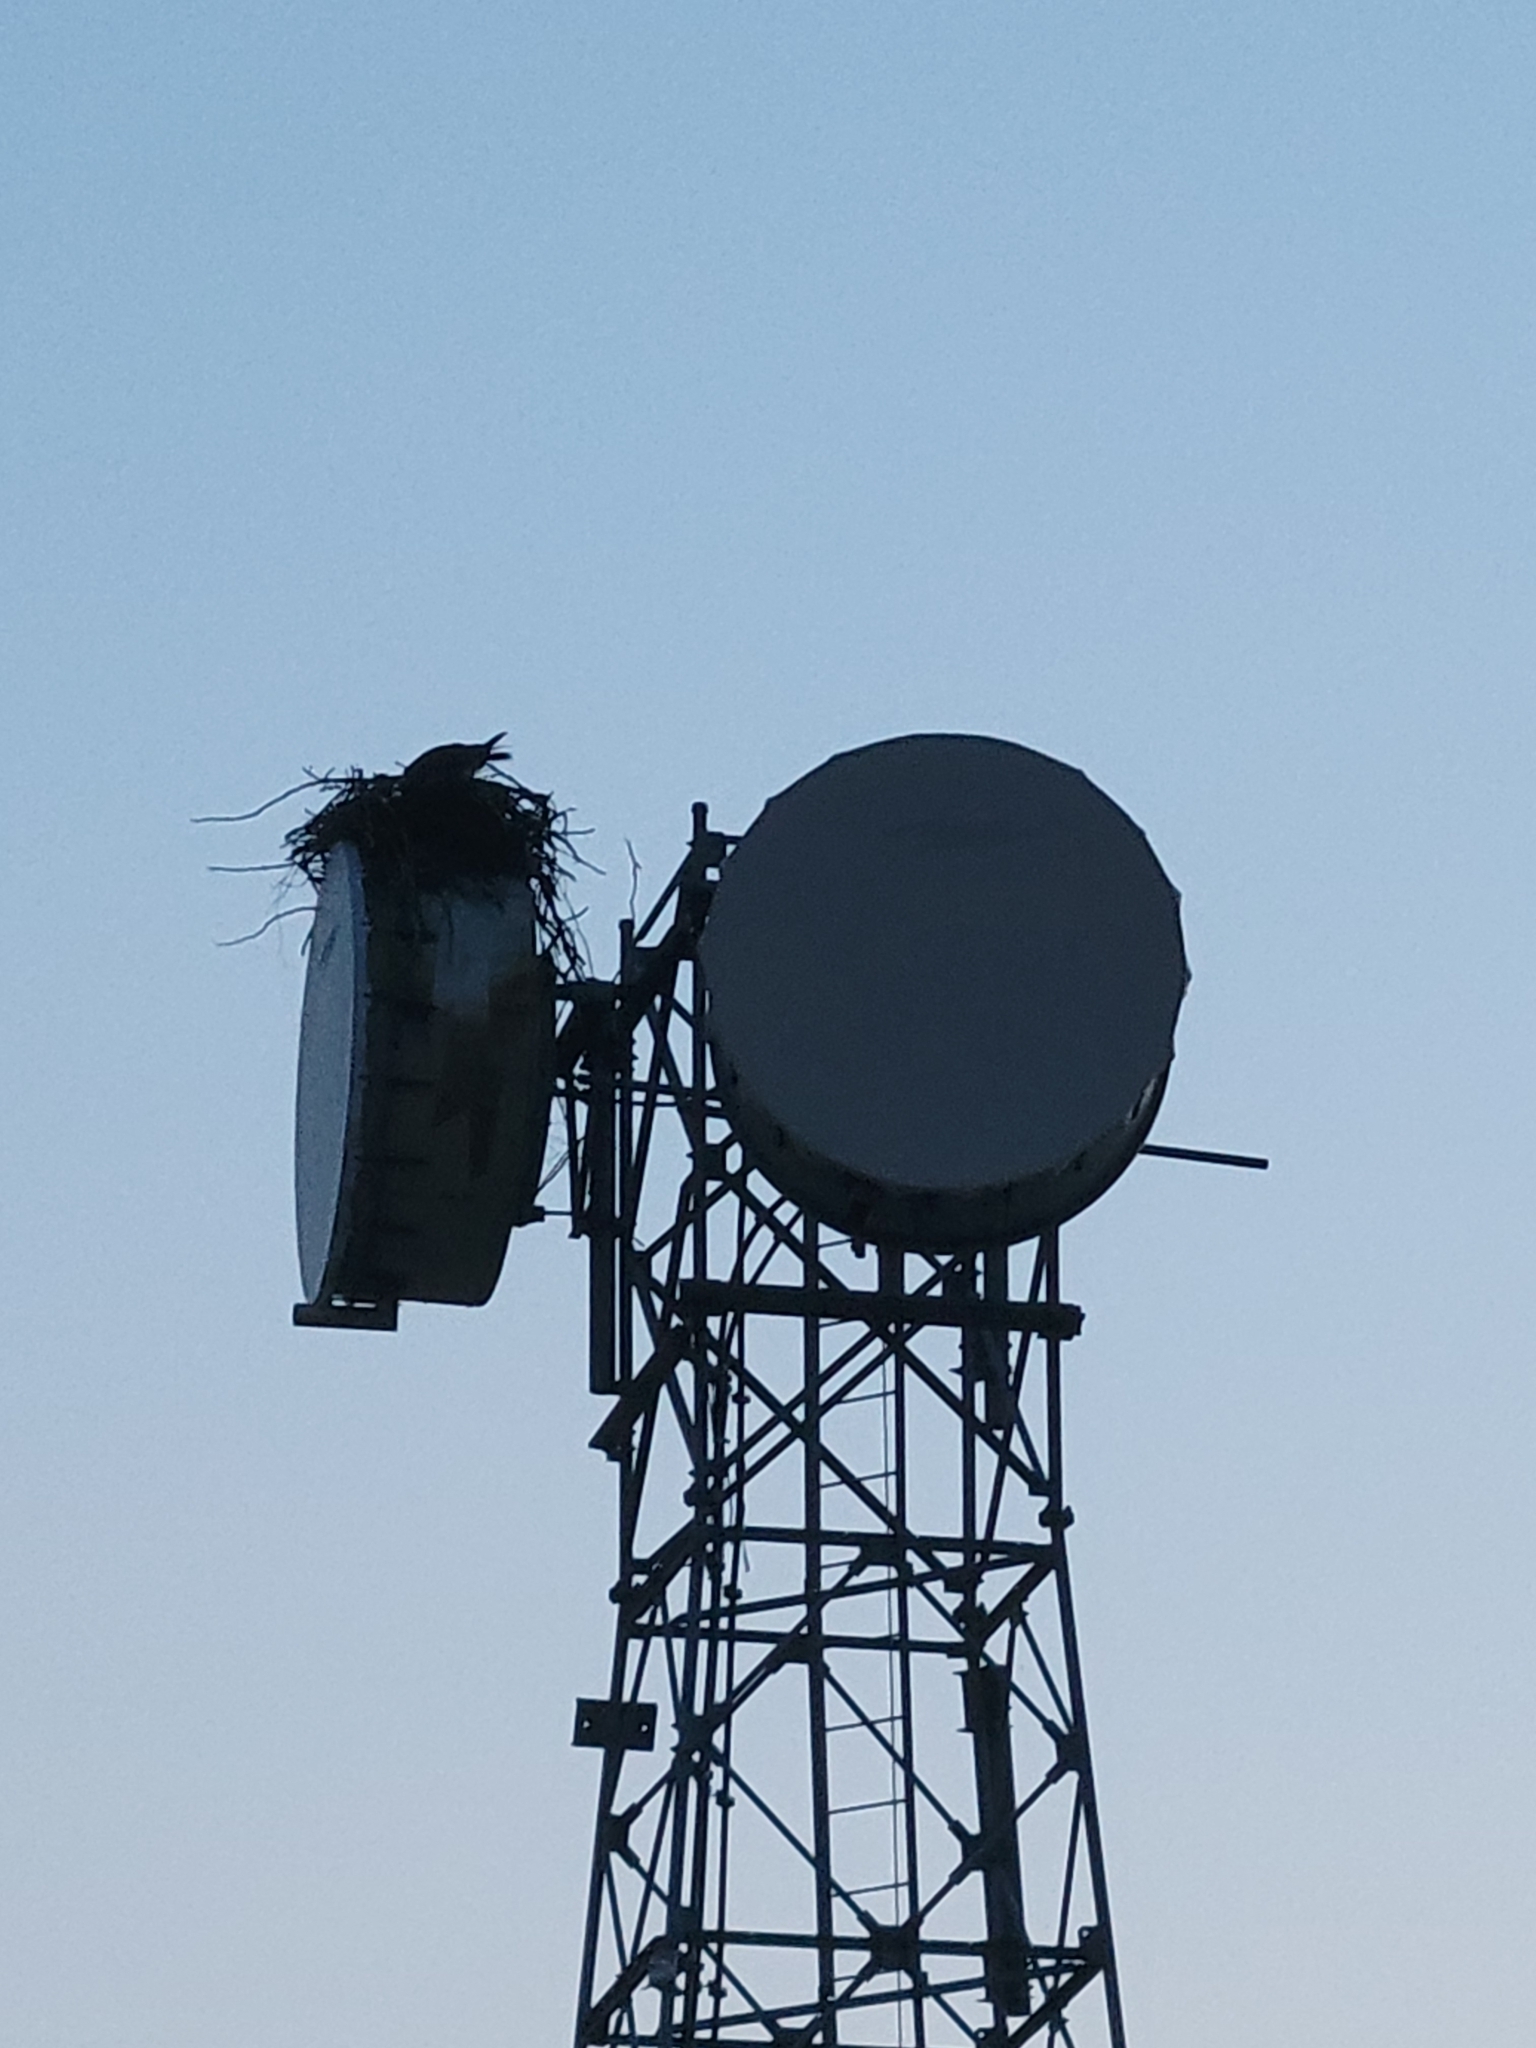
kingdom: Animalia
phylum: Chordata
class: Aves
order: Accipitriformes
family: Pandionidae
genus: Pandion
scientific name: Pandion haliaetus
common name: Osprey
